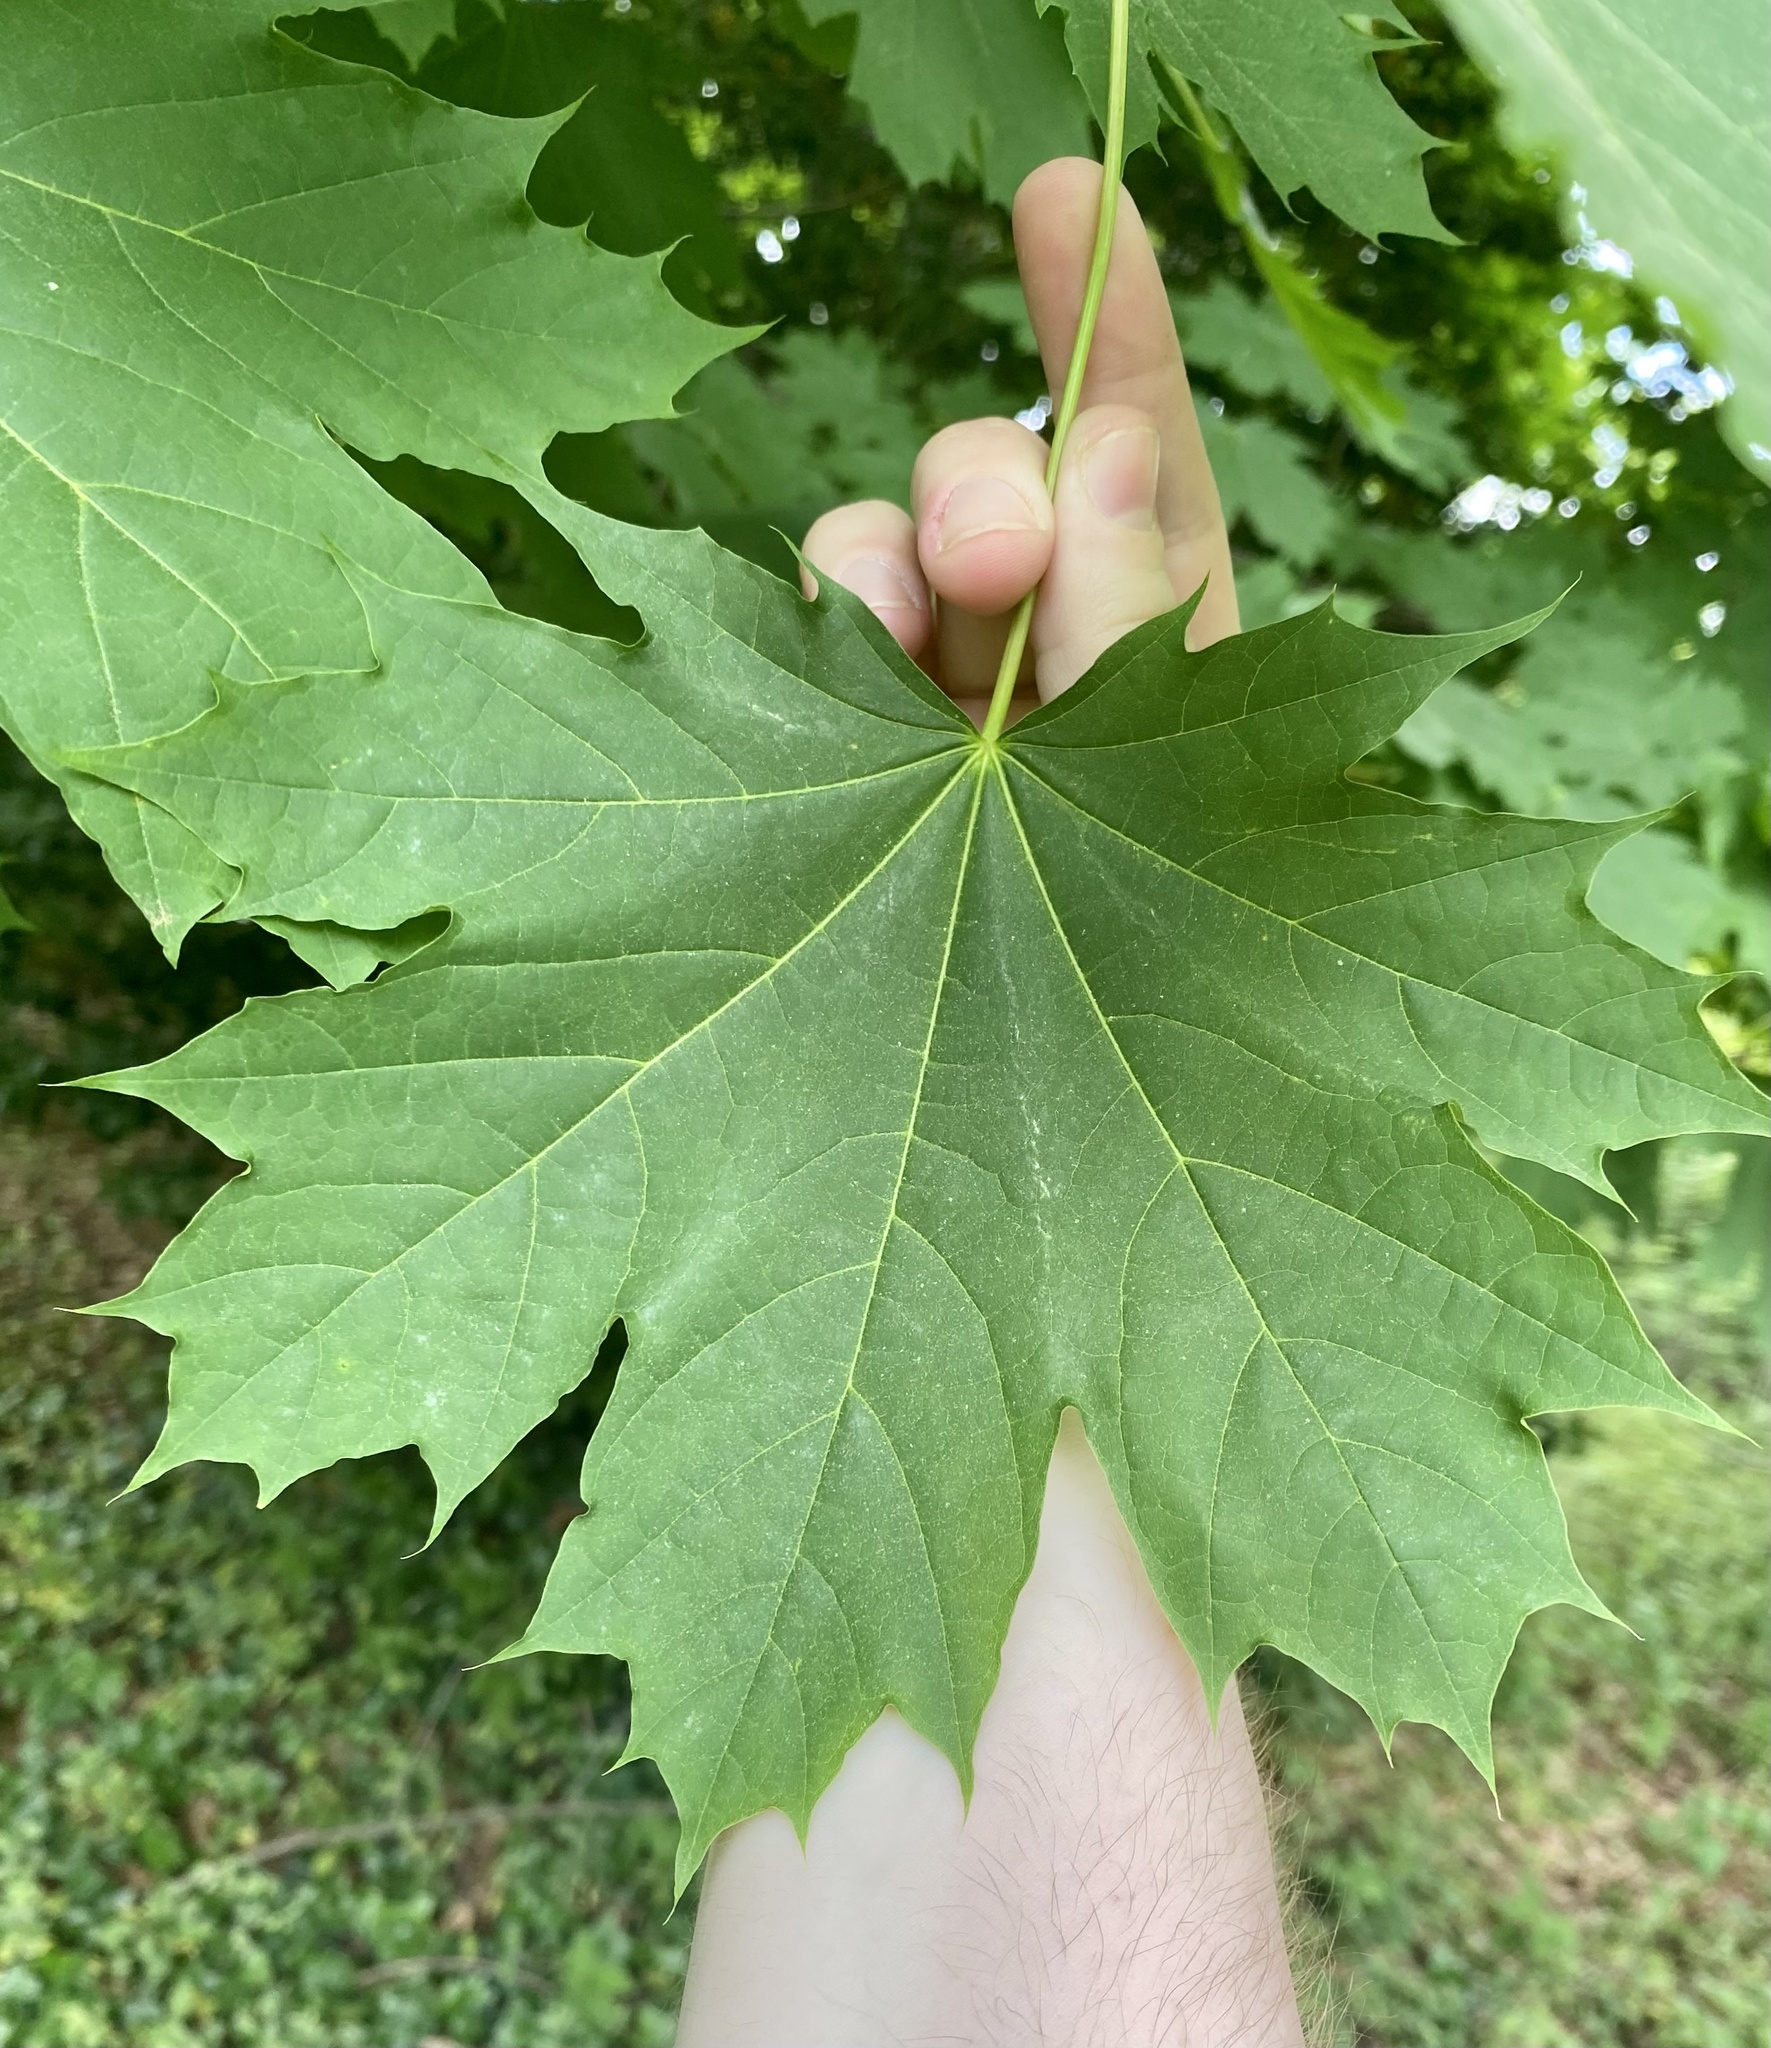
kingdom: Plantae
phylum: Tracheophyta
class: Magnoliopsida
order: Sapindales
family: Sapindaceae
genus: Acer
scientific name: Acer platanoides
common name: Norway maple
